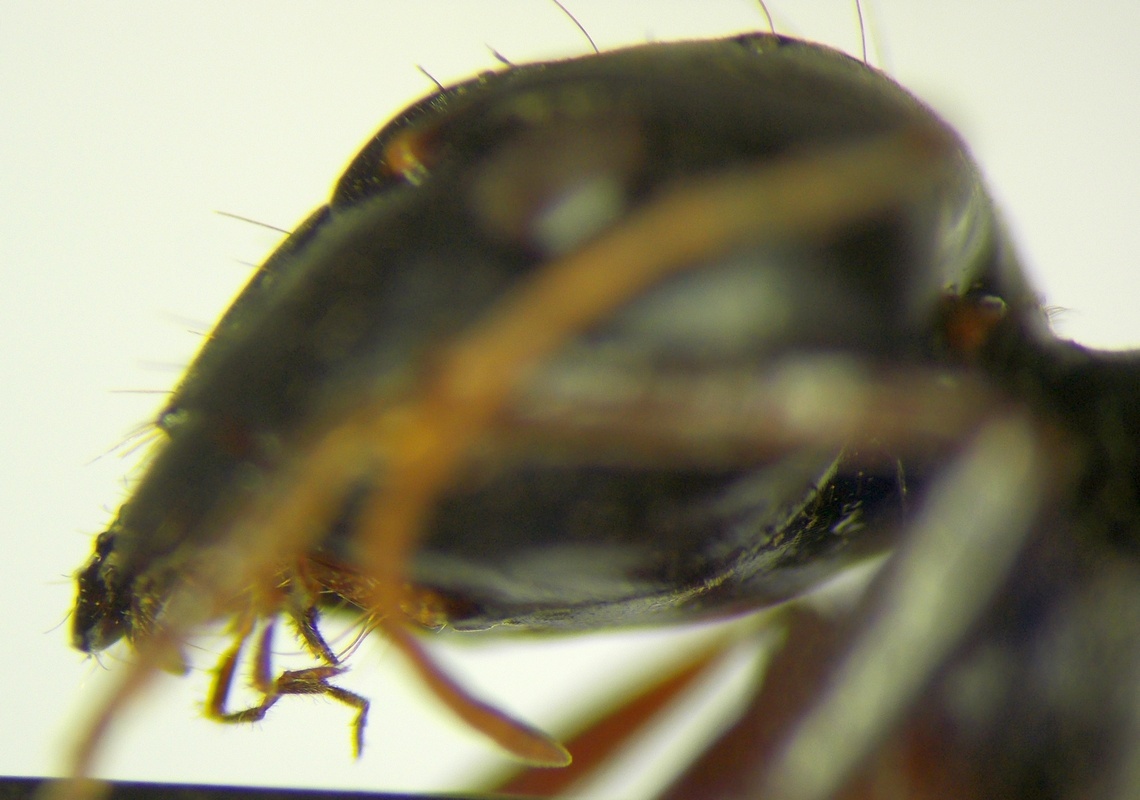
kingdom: Animalia
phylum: Arthropoda
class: Insecta
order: Hymenoptera
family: Formicidae
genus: Camponotus
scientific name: Camponotus sanctus
